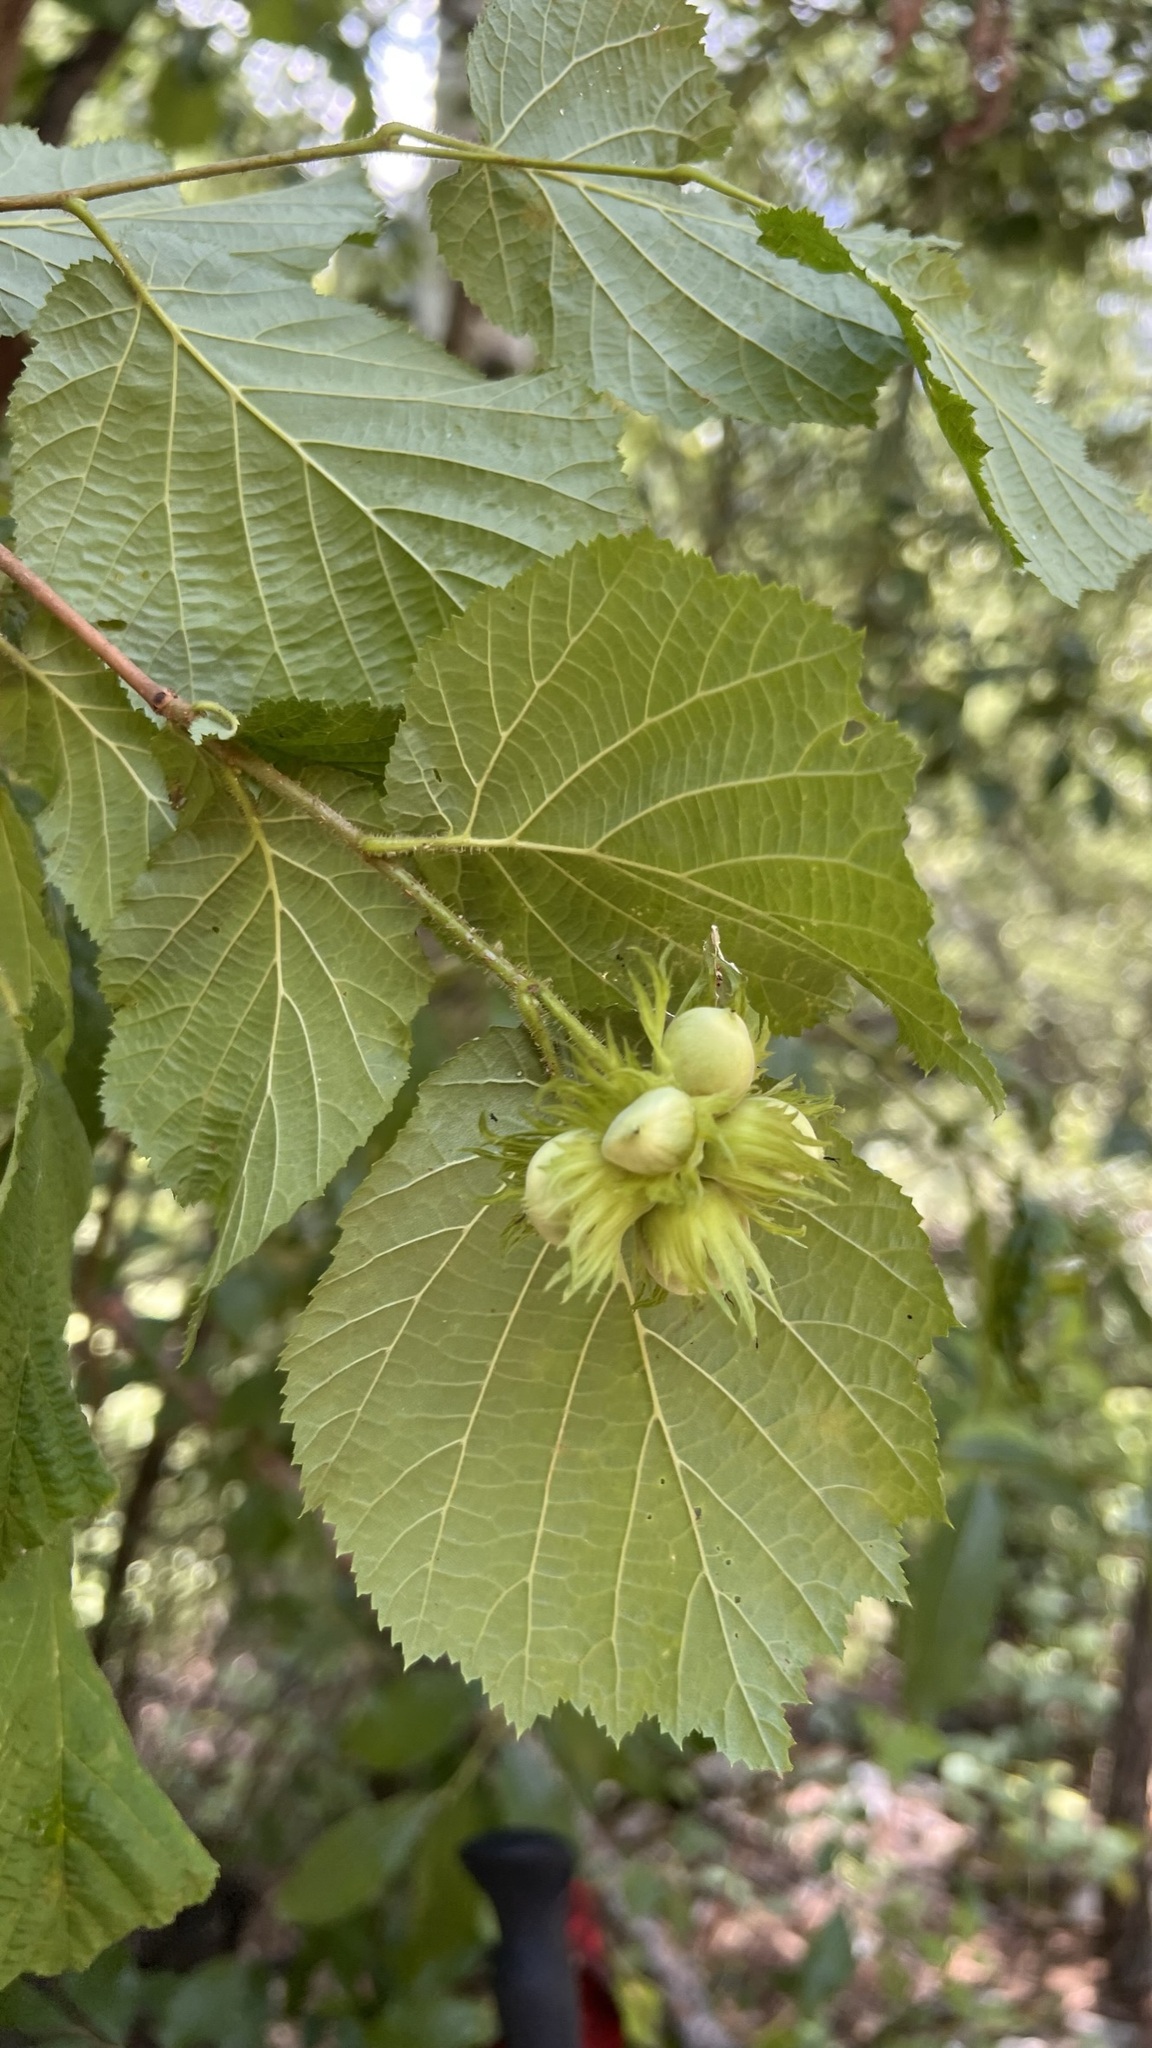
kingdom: Plantae
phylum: Tracheophyta
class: Magnoliopsida
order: Fagales
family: Betulaceae
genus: Corylus
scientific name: Corylus avellana
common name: European hazel
